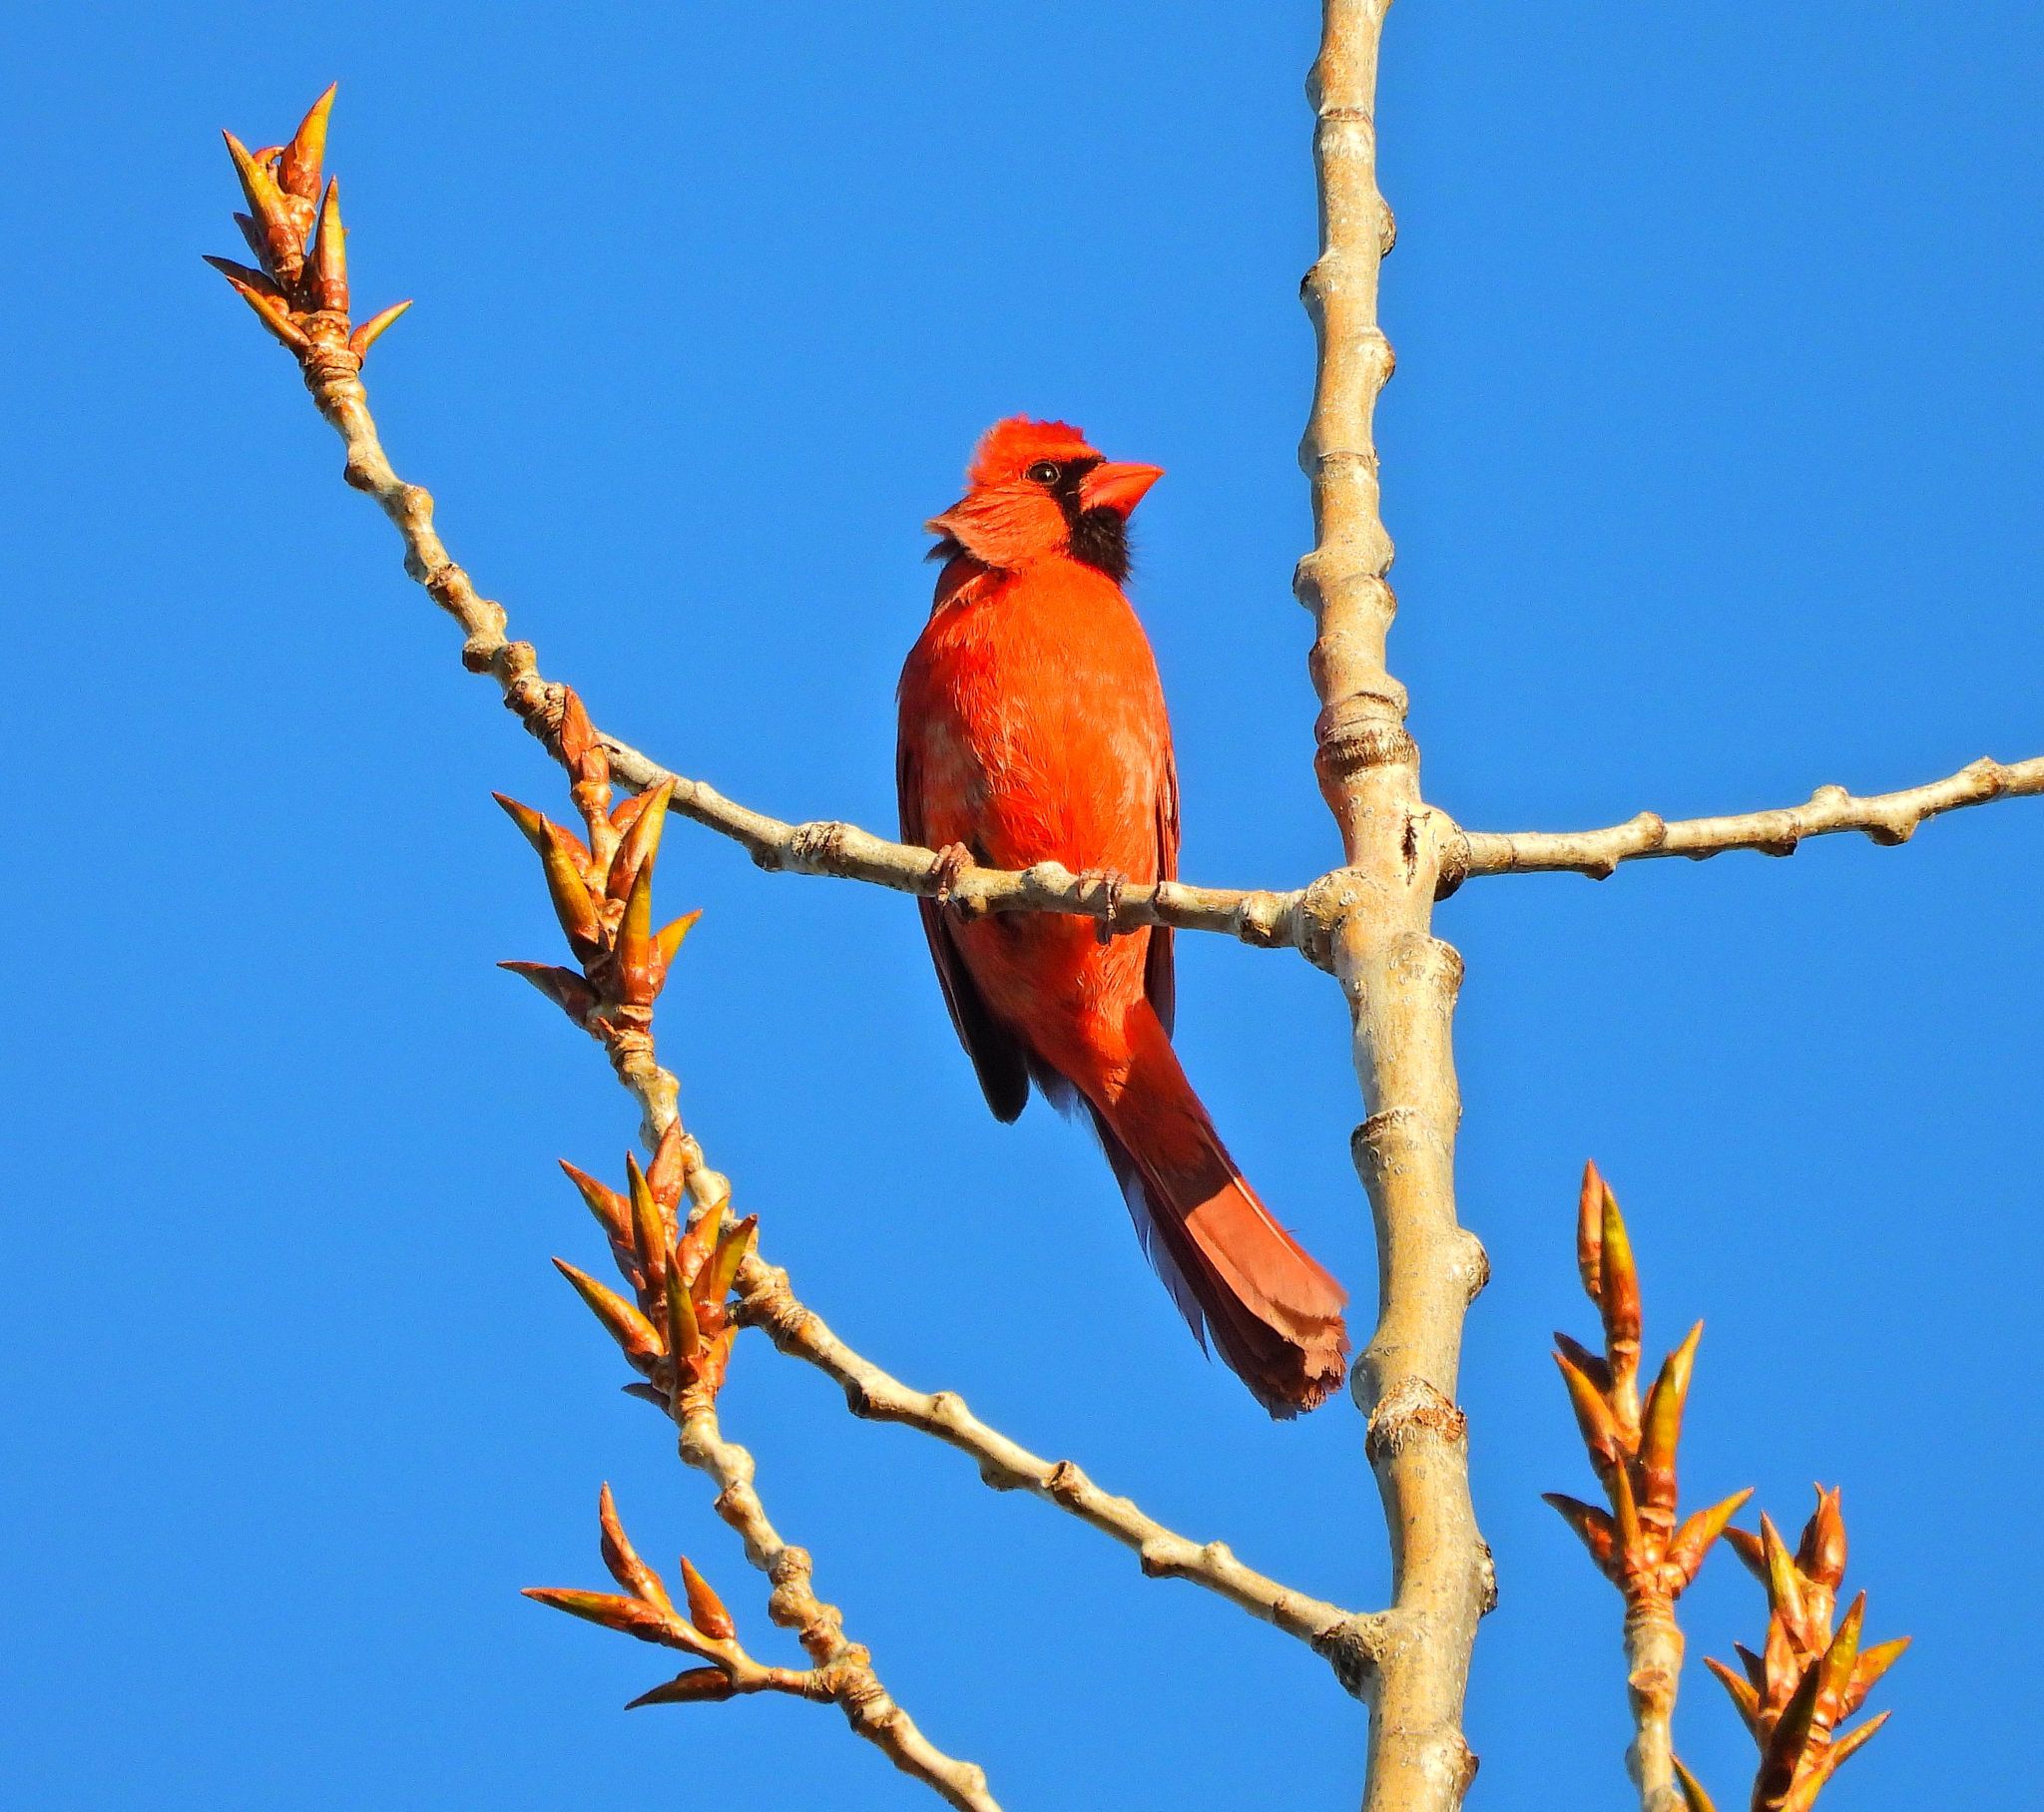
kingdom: Animalia
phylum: Chordata
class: Aves
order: Passeriformes
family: Cardinalidae
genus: Cardinalis
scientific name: Cardinalis cardinalis
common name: Northern cardinal
